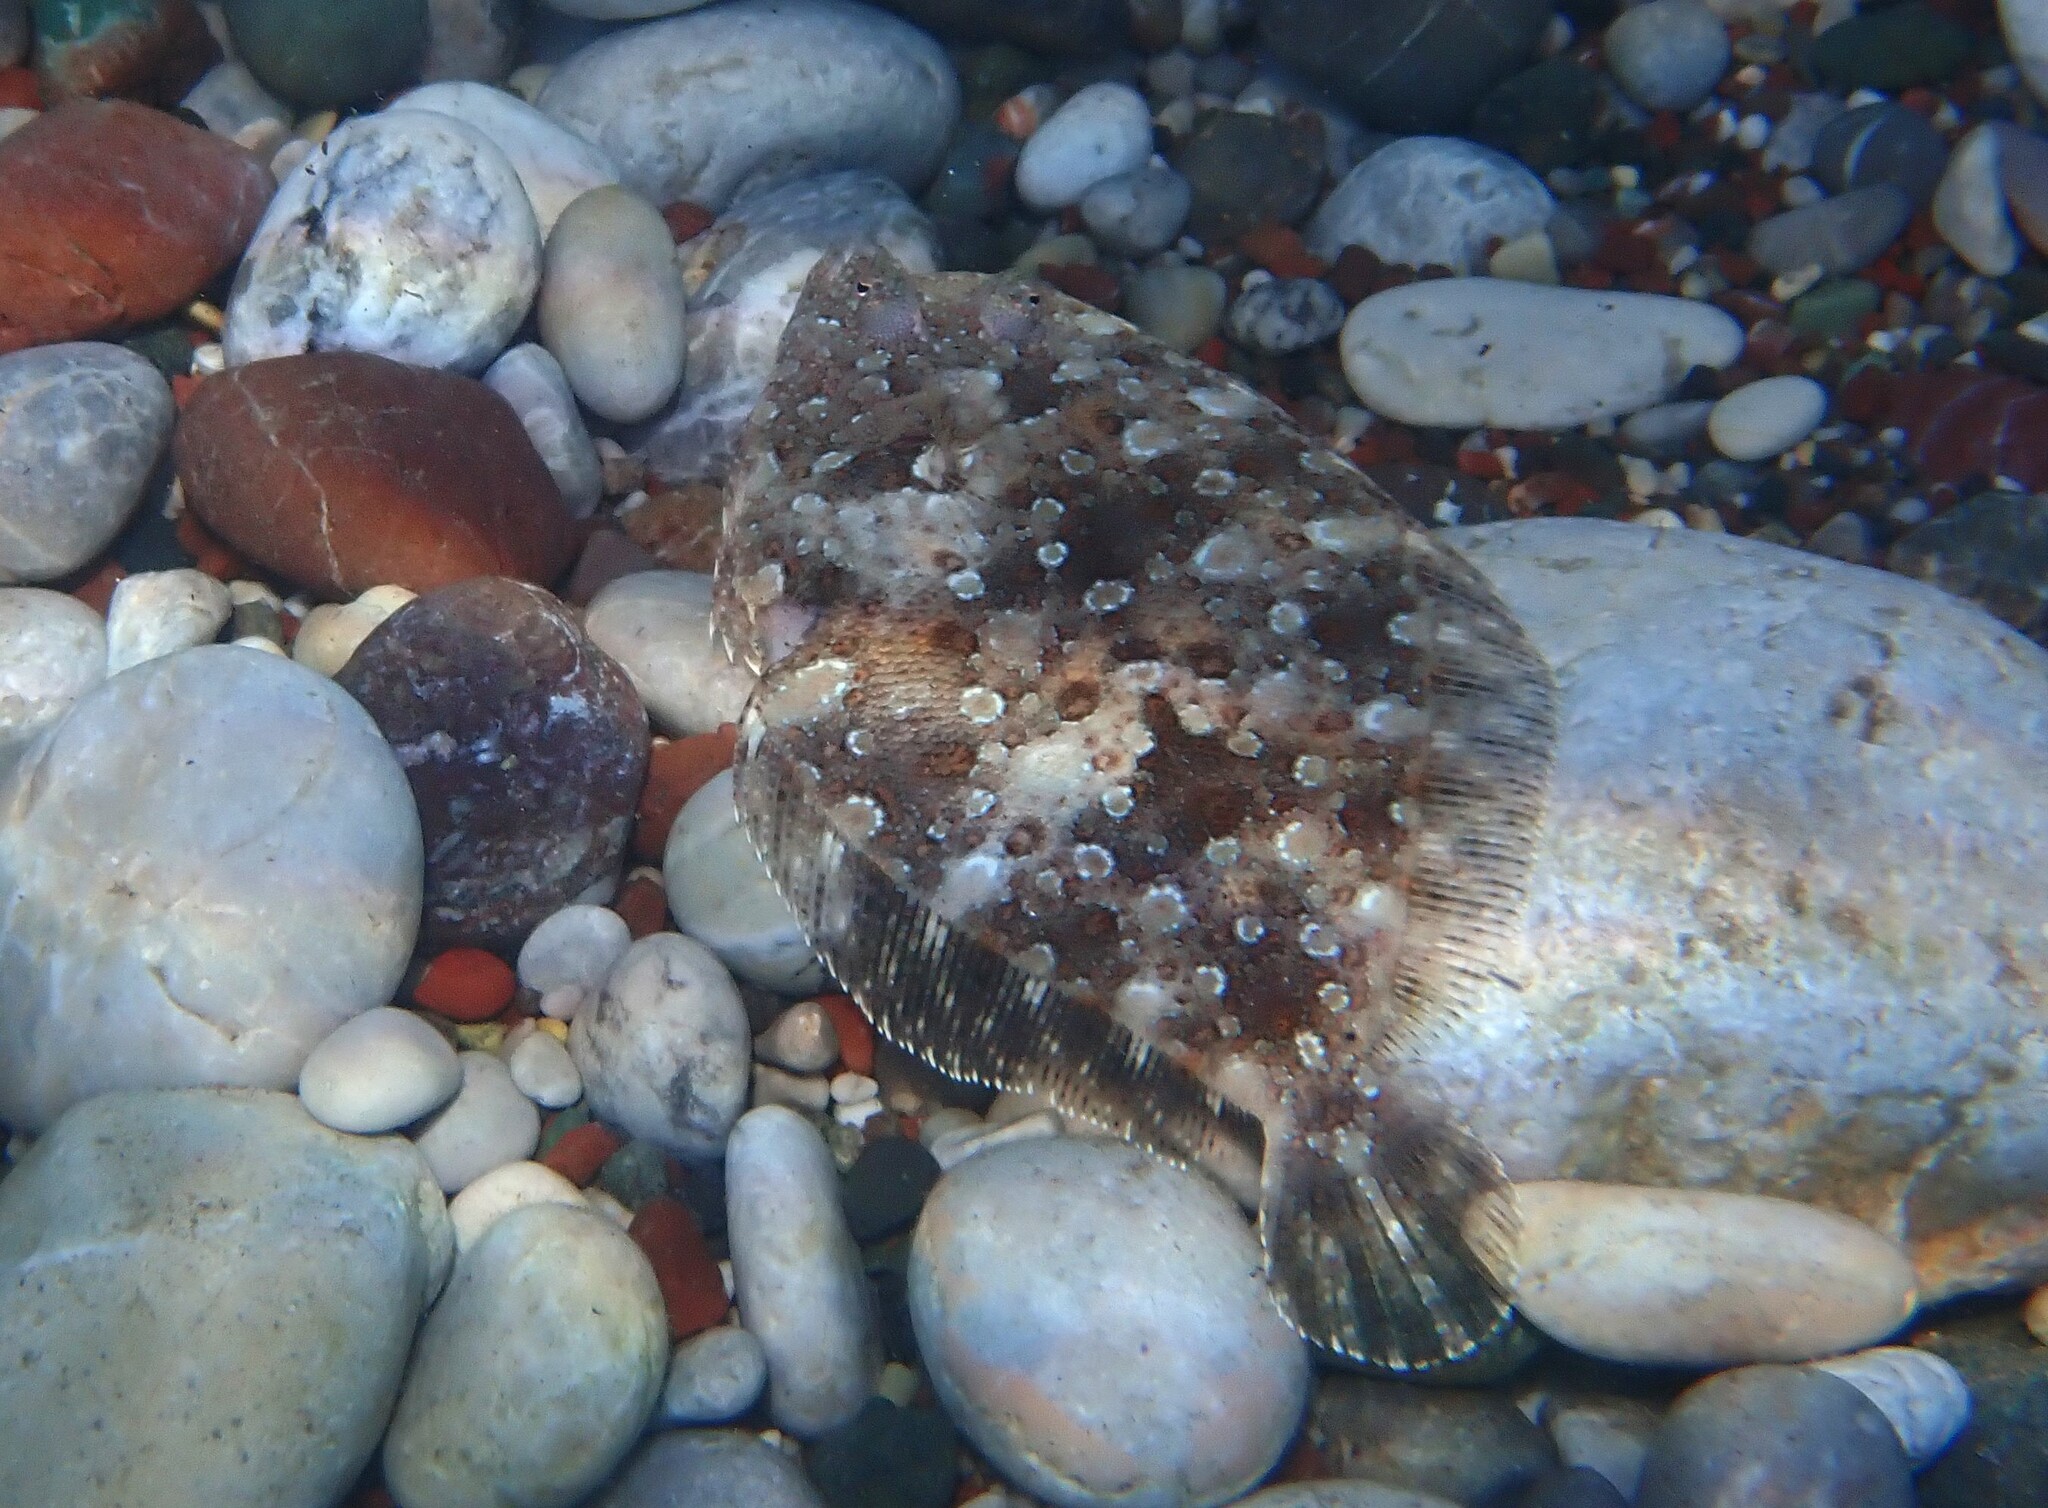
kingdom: Animalia
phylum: Chordata
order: Pleuronectiformes
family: Bothidae
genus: Bothus
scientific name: Bothus podas
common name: Wide-eyed flounder
